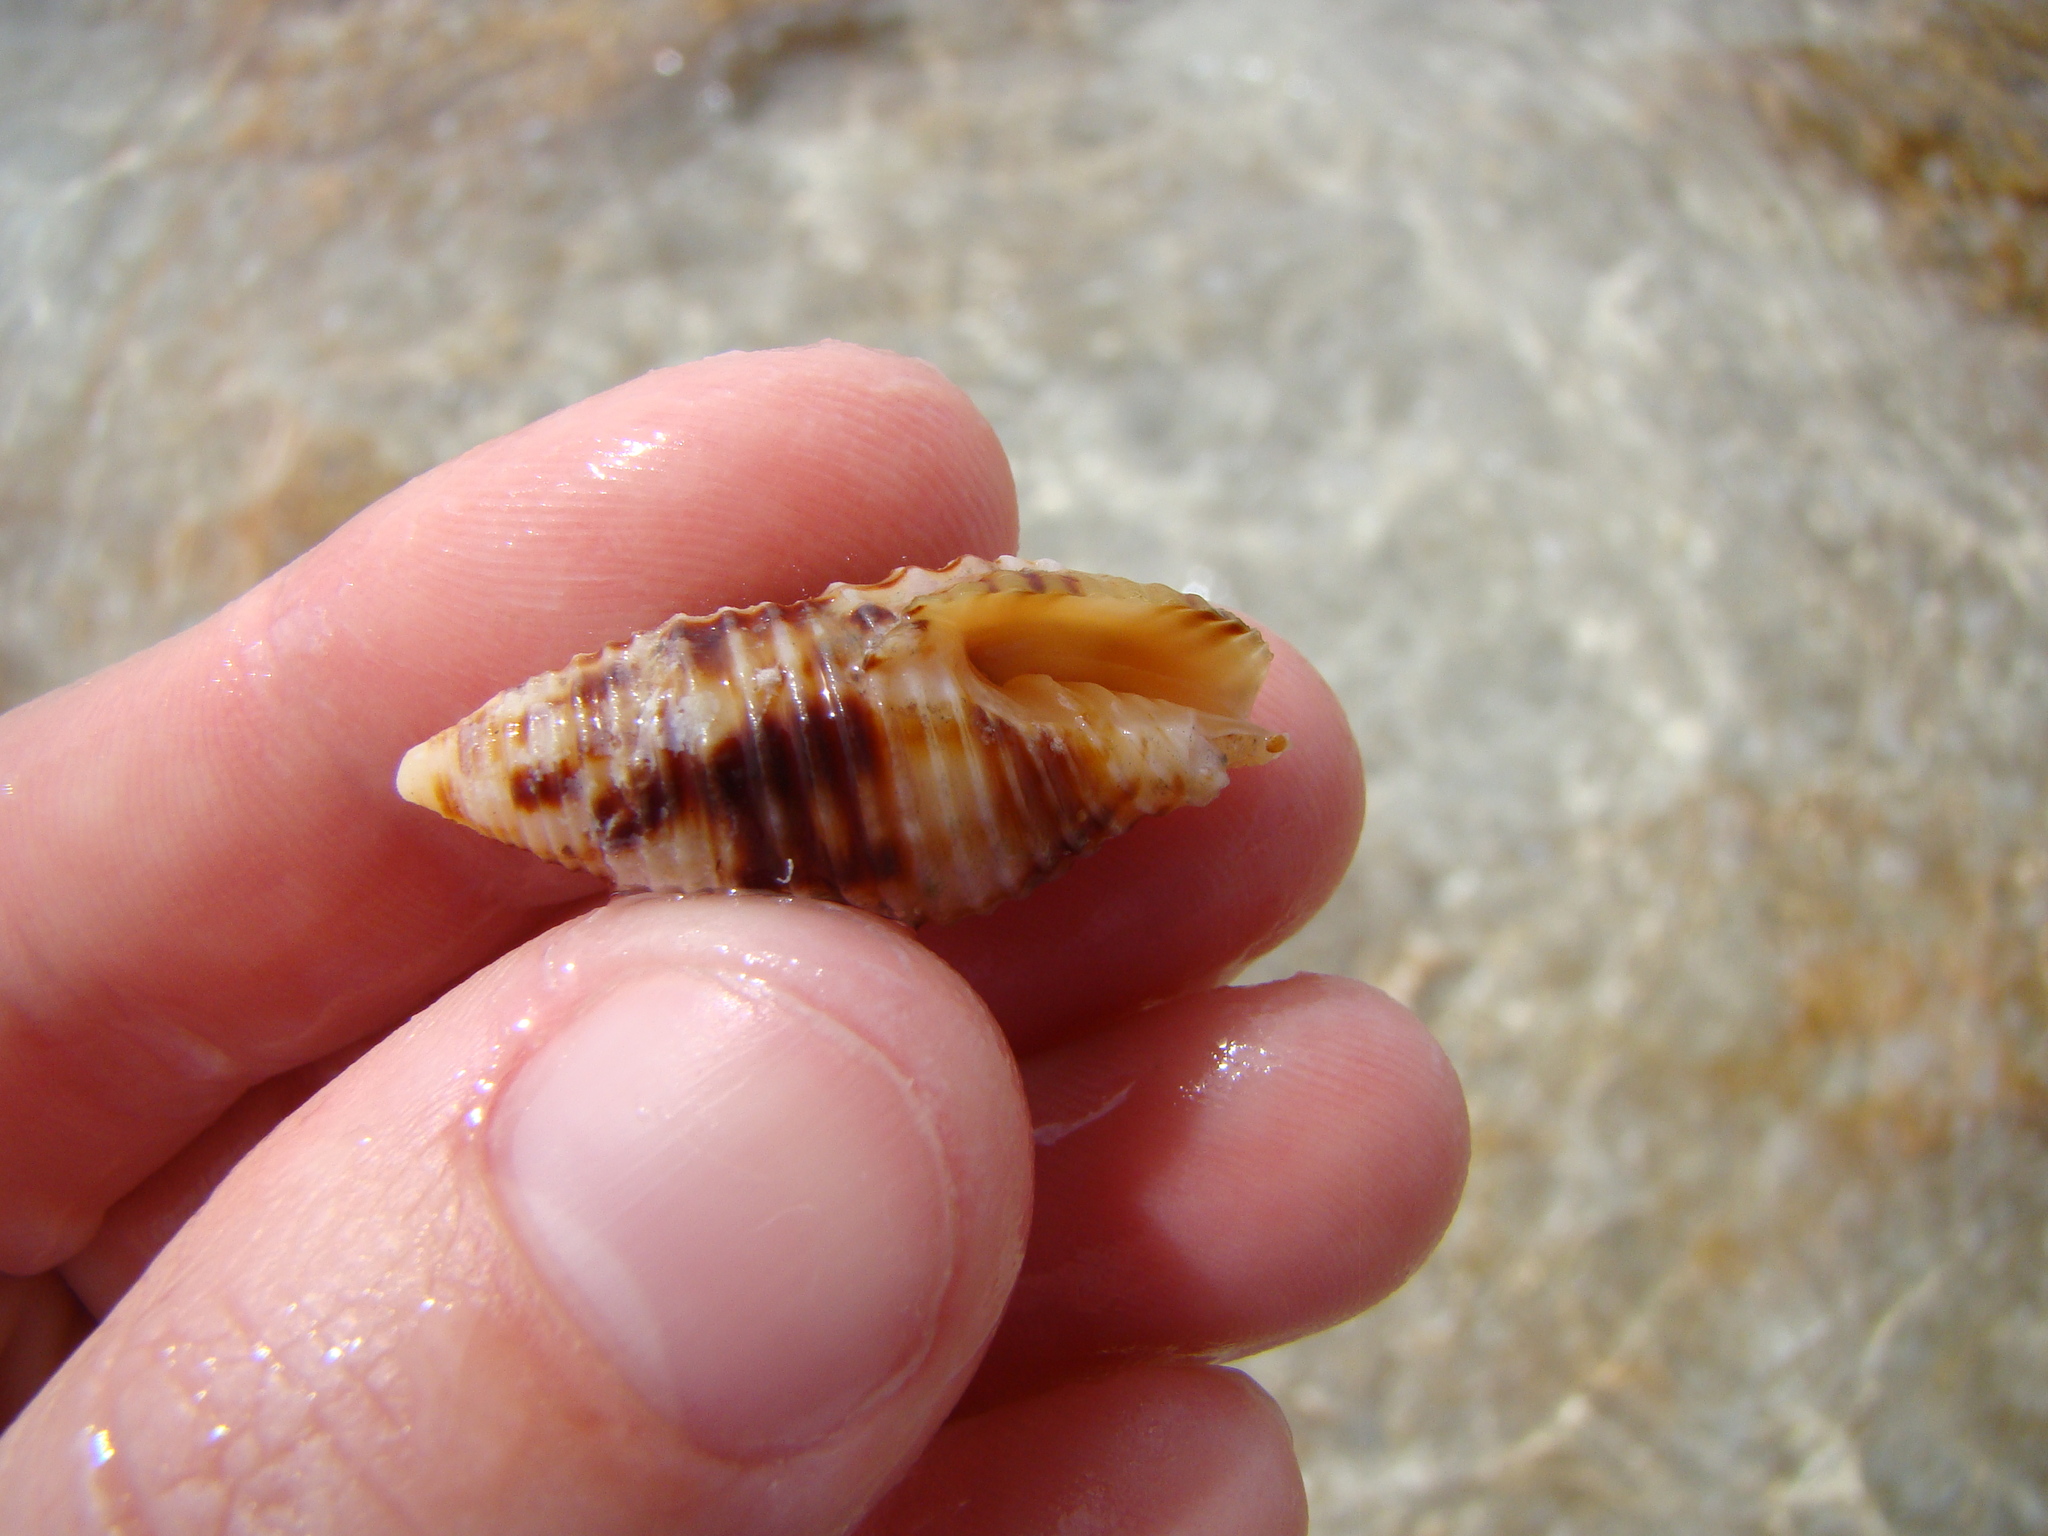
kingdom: Animalia
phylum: Mollusca
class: Gastropoda
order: Neogastropoda
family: Conidae
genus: Conus
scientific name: Conus ebraeus
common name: Hebrew cone
